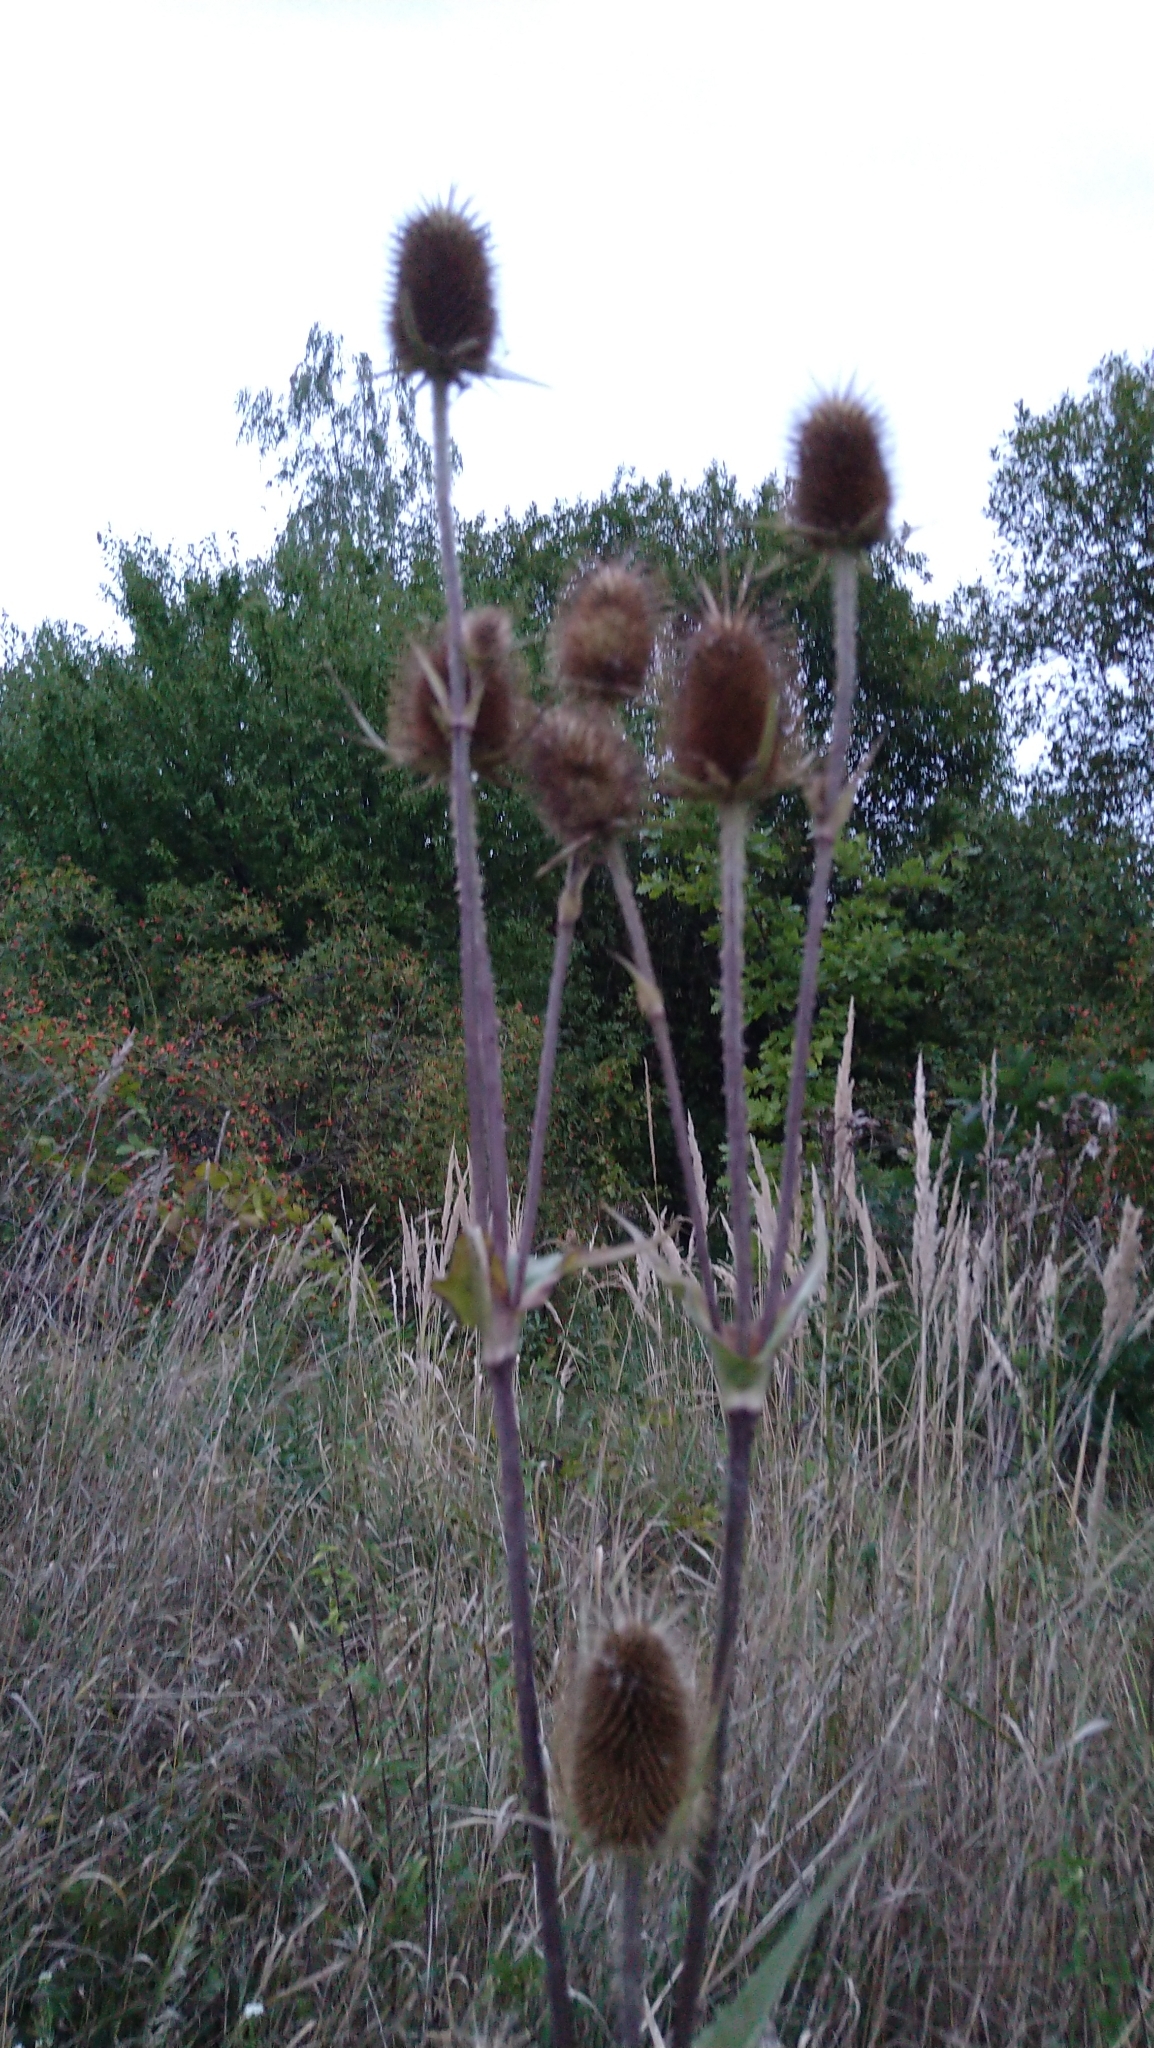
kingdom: Plantae
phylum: Tracheophyta
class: Magnoliopsida
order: Dipsacales
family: Caprifoliaceae
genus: Dipsacus
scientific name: Dipsacus fullonum
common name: Teasel
